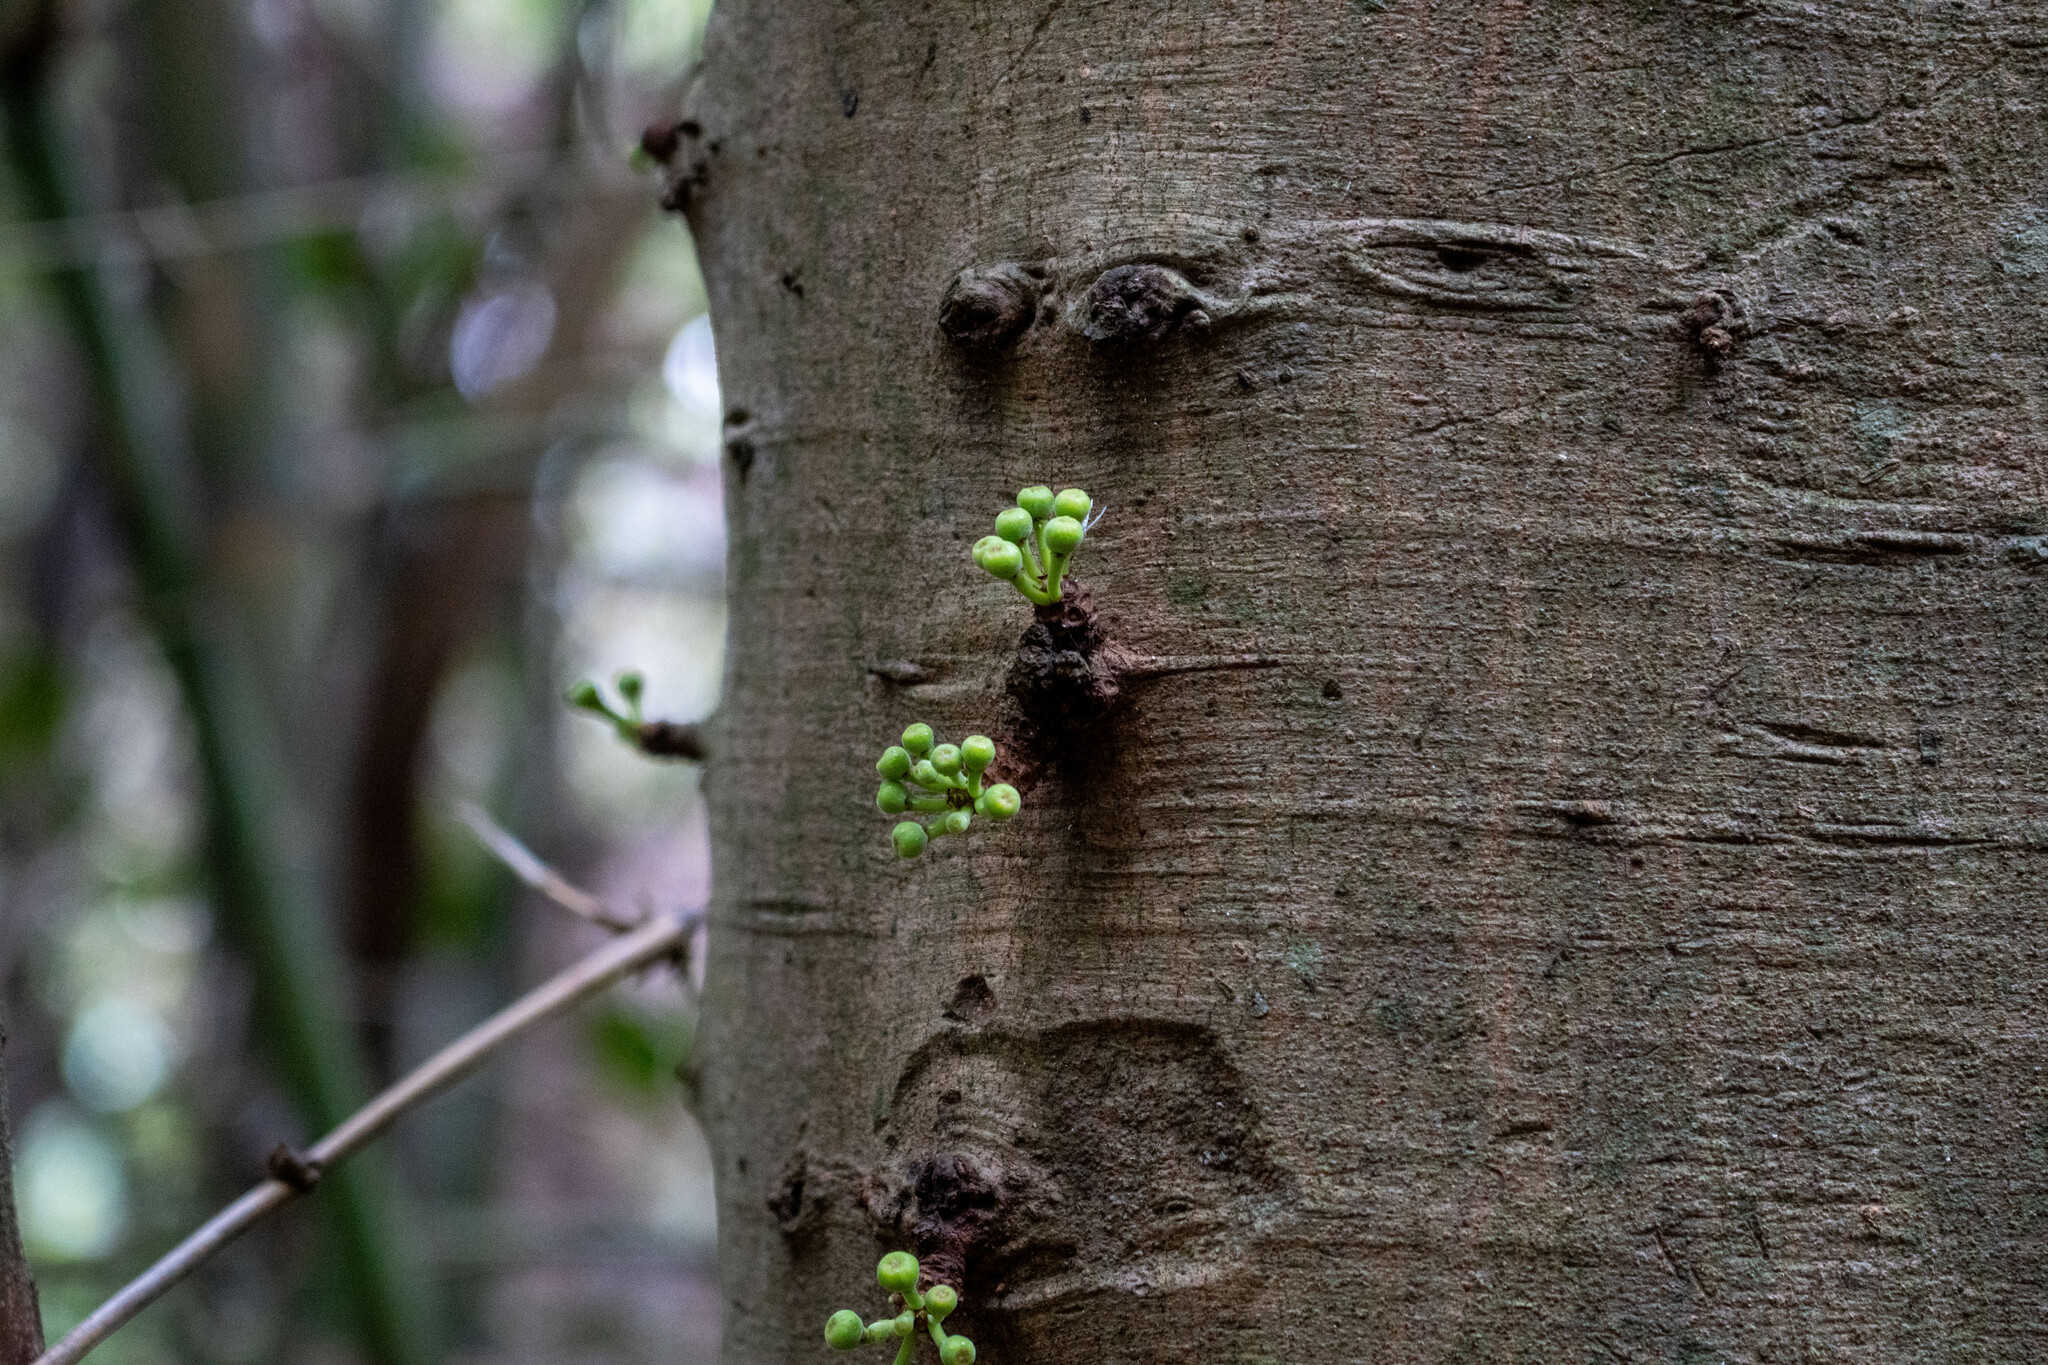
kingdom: Plantae
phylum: Tracheophyta
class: Magnoliopsida
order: Rosales
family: Moraceae
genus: Ficus
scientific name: Ficus variegata
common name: Variegated fig
